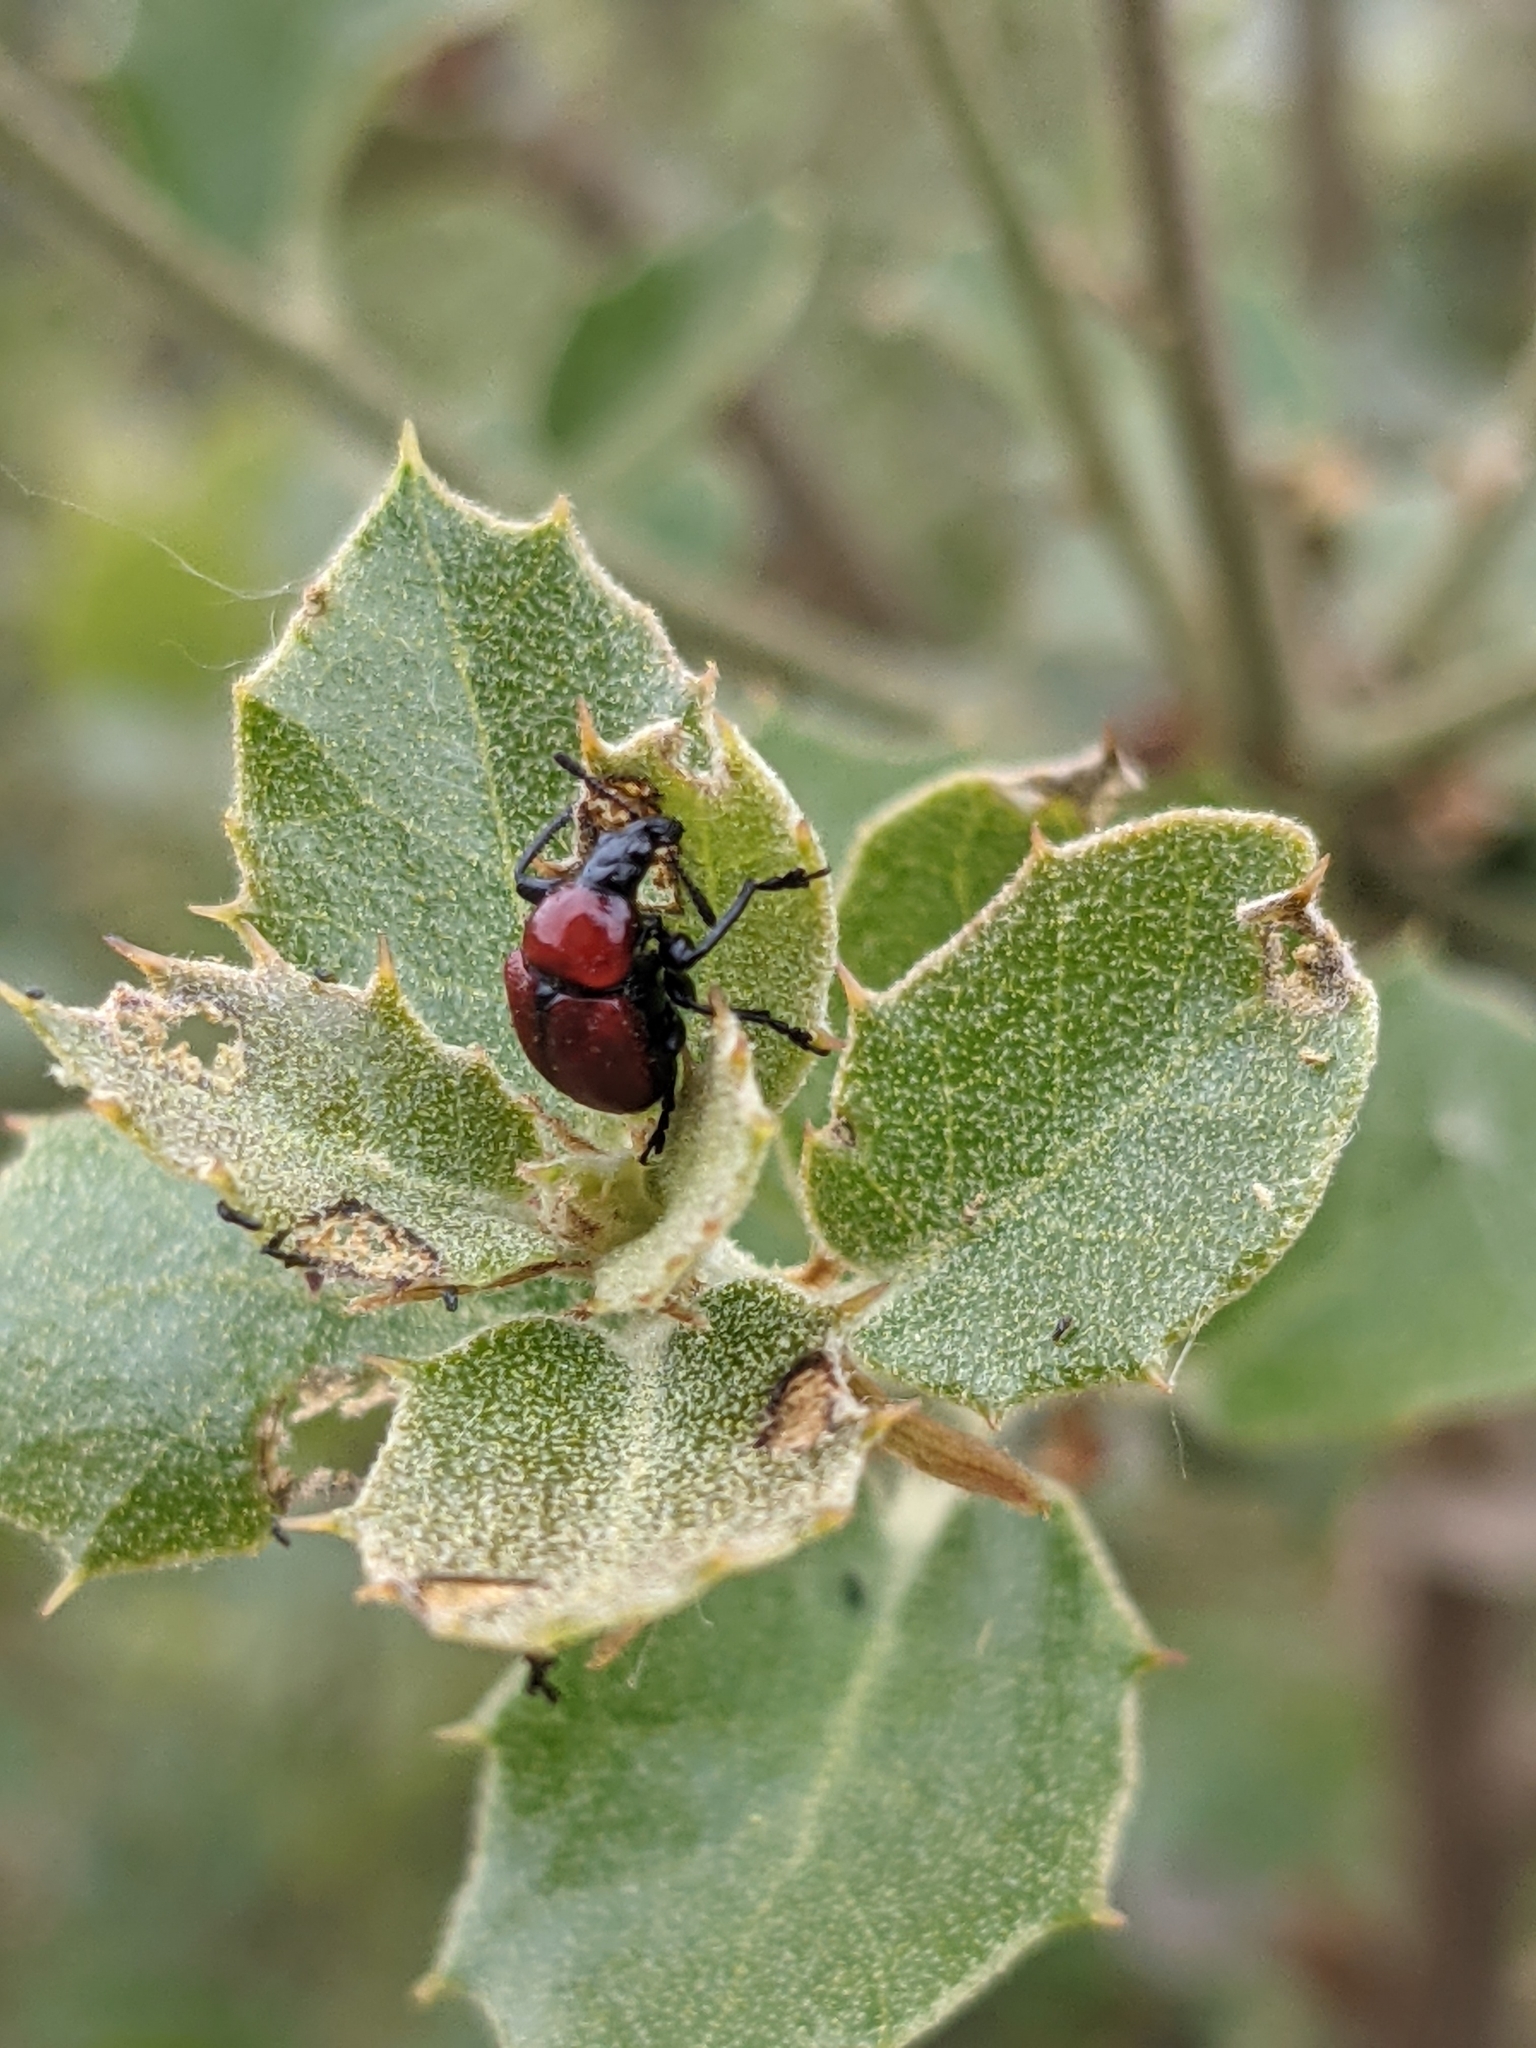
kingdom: Animalia
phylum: Arthropoda
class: Insecta
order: Coleoptera
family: Attelabidae
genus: Attelabus
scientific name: Attelabus nitens
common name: Oak leaf-roller
